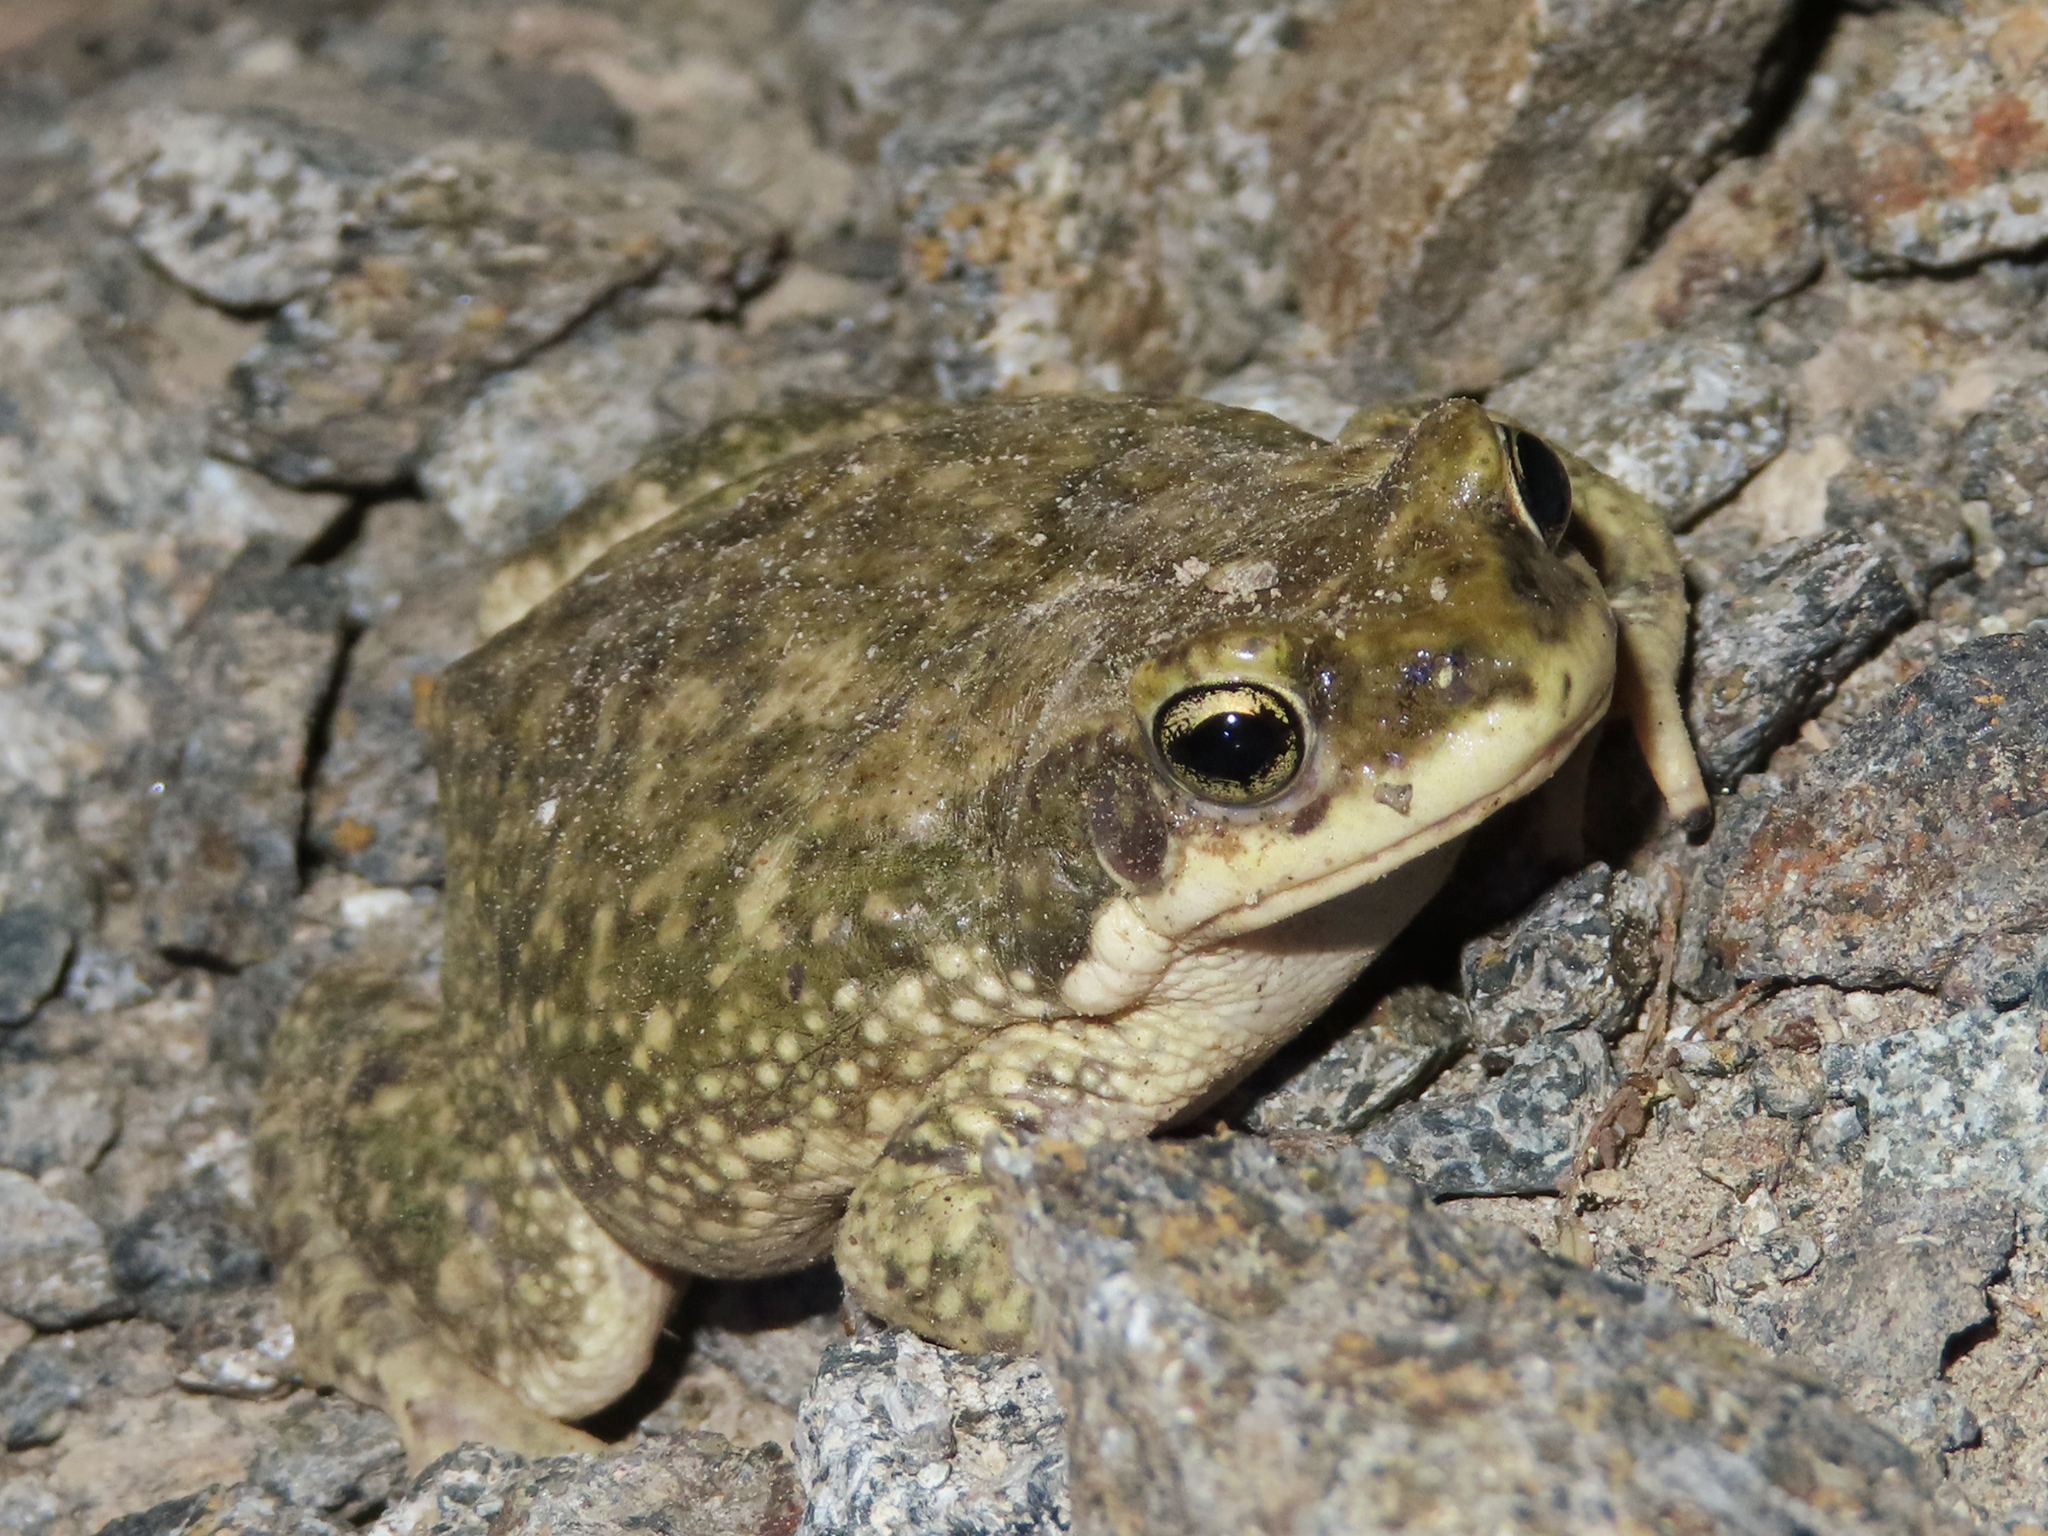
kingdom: Animalia
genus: Firouzophrynus
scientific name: Firouzophrynus
